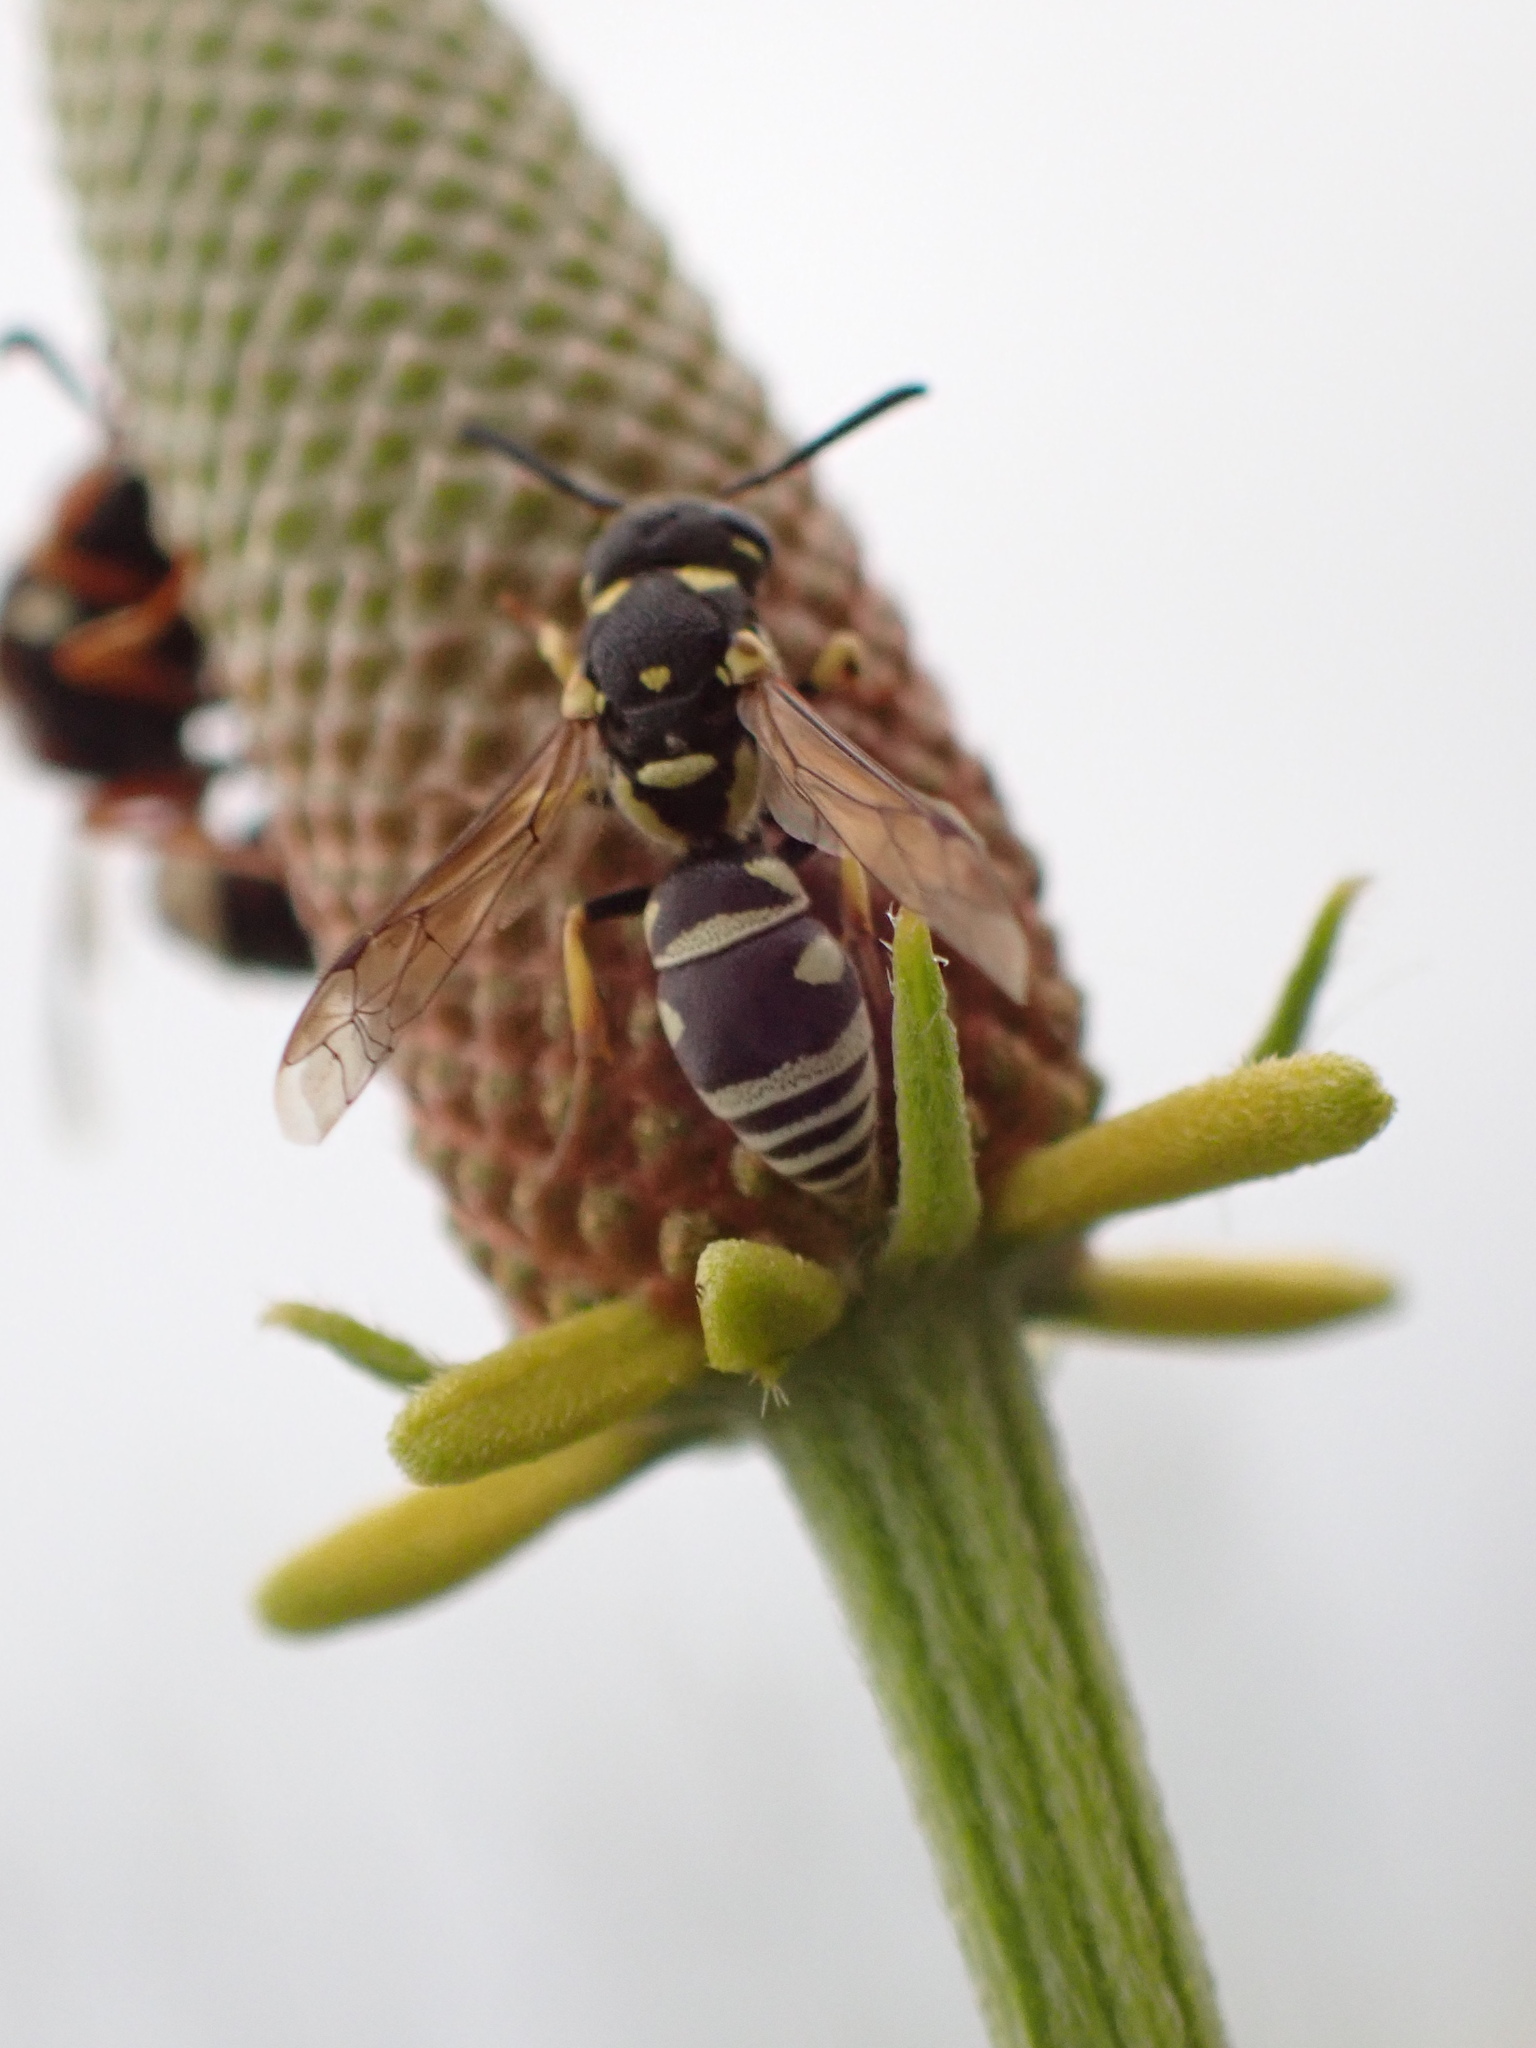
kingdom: Animalia
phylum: Arthropoda
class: Insecta
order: Hymenoptera
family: Eumenidae
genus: Rhynchalastor
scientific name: Rhynchalastor anormis
